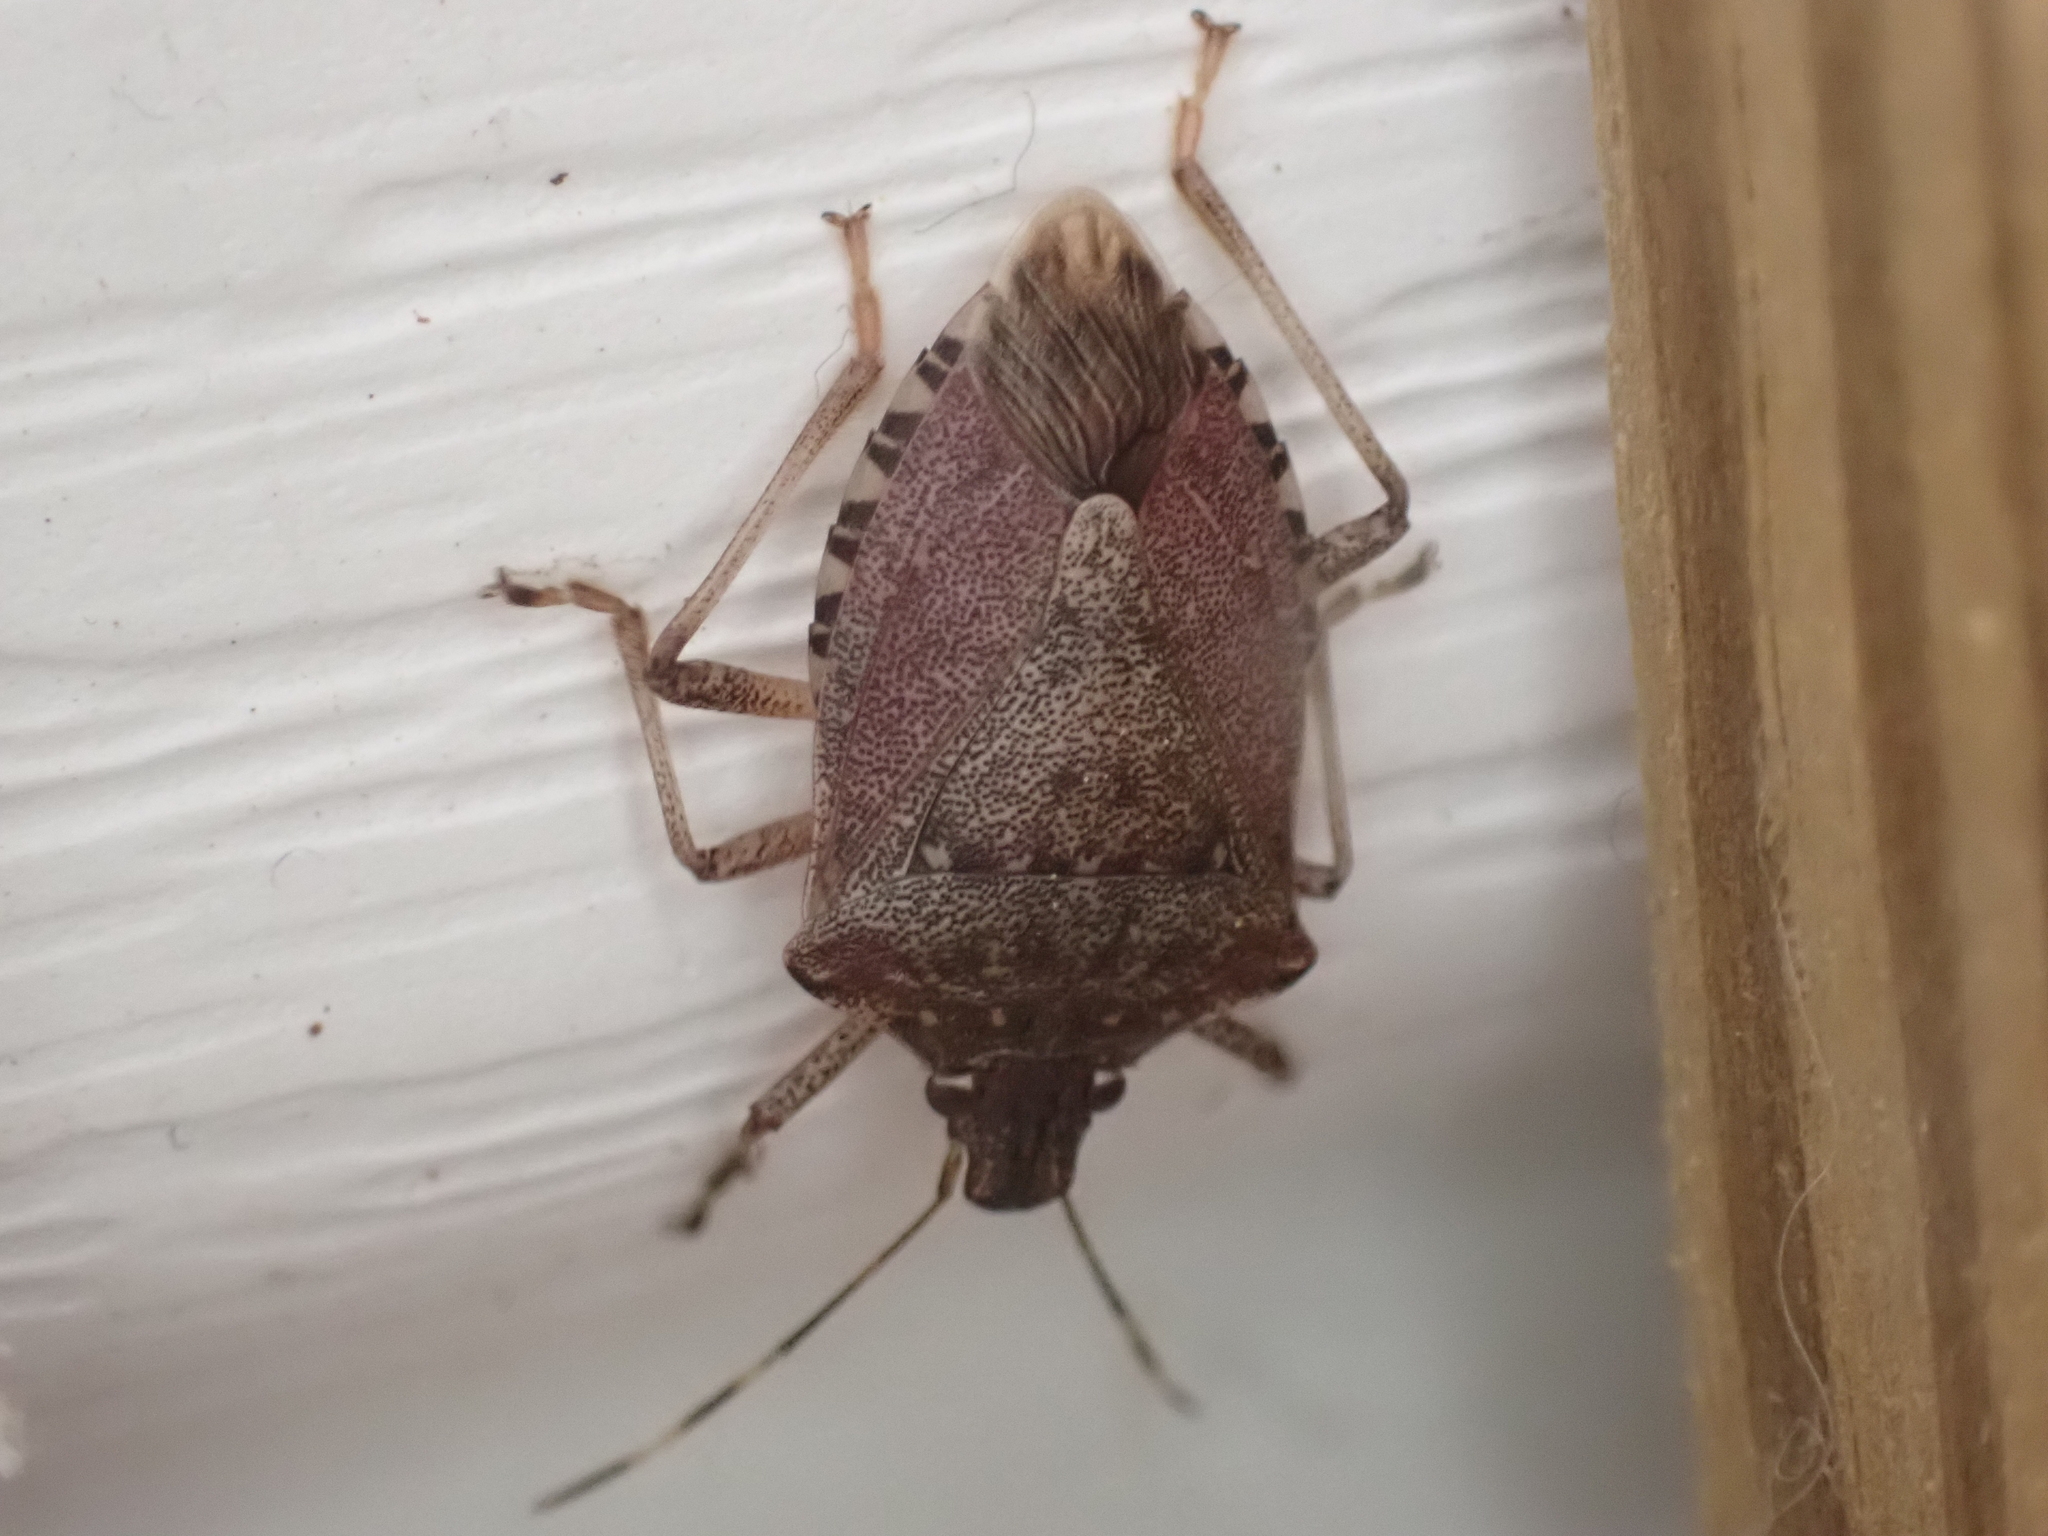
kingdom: Animalia
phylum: Arthropoda
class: Insecta
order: Hemiptera
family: Pentatomidae
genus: Halyomorpha
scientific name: Halyomorpha halys
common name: Brown marmorated stink bug
